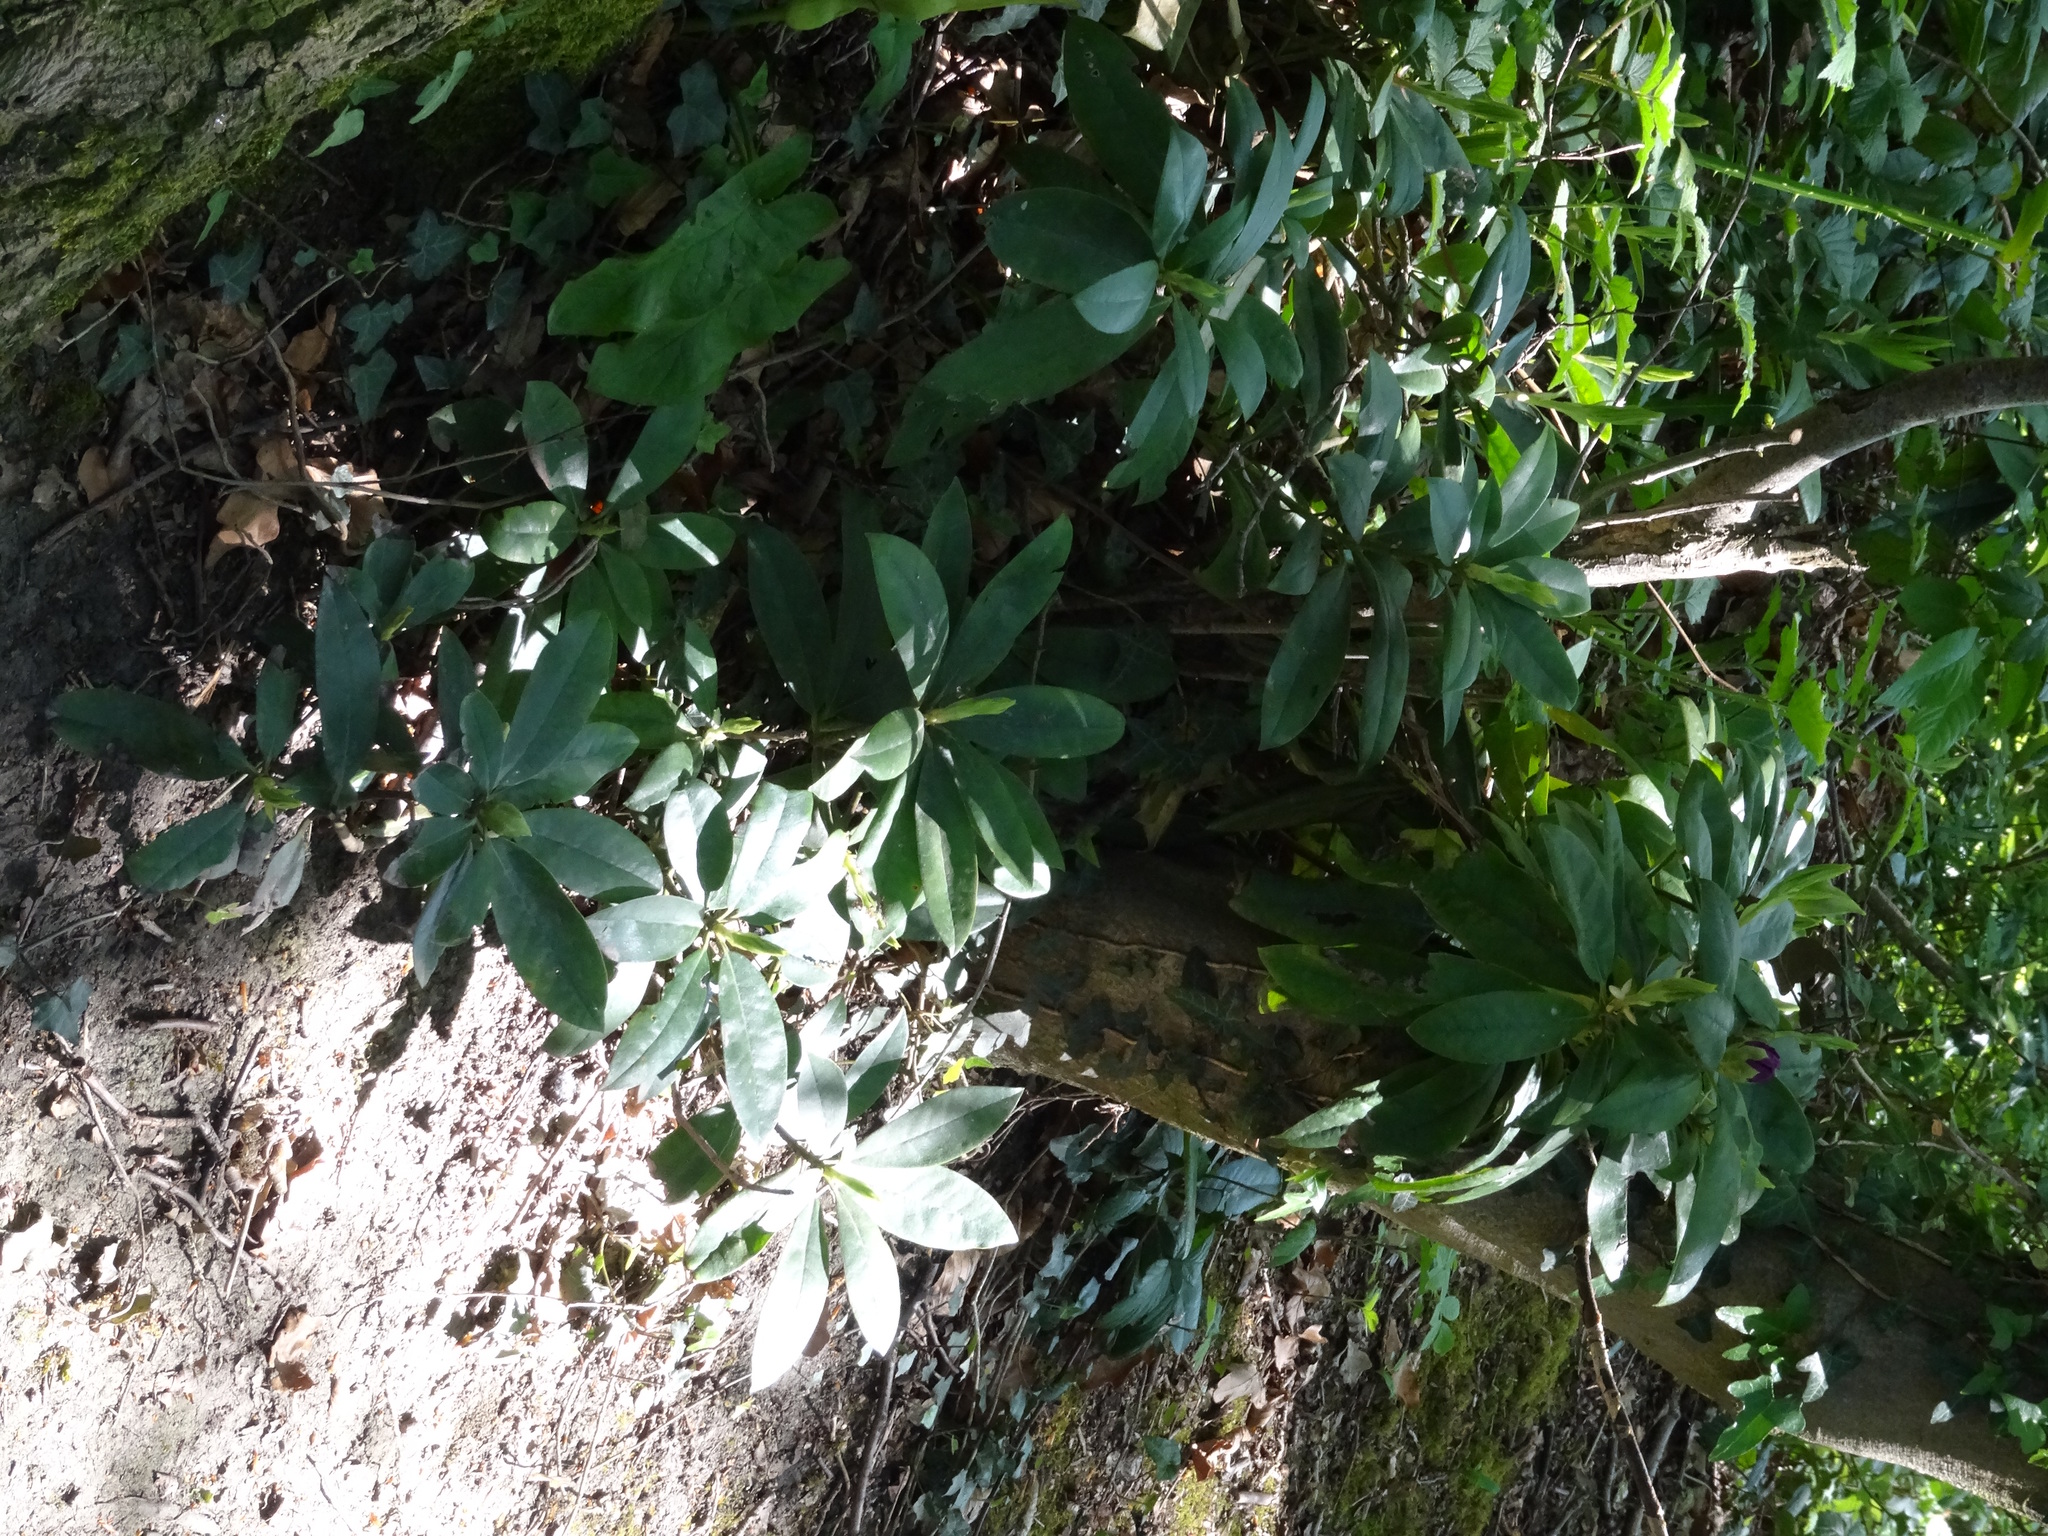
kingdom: Plantae
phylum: Tracheophyta
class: Magnoliopsida
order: Ericales
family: Ericaceae
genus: Rhododendron
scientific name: Rhododendron ponticum
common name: Rhododendron
